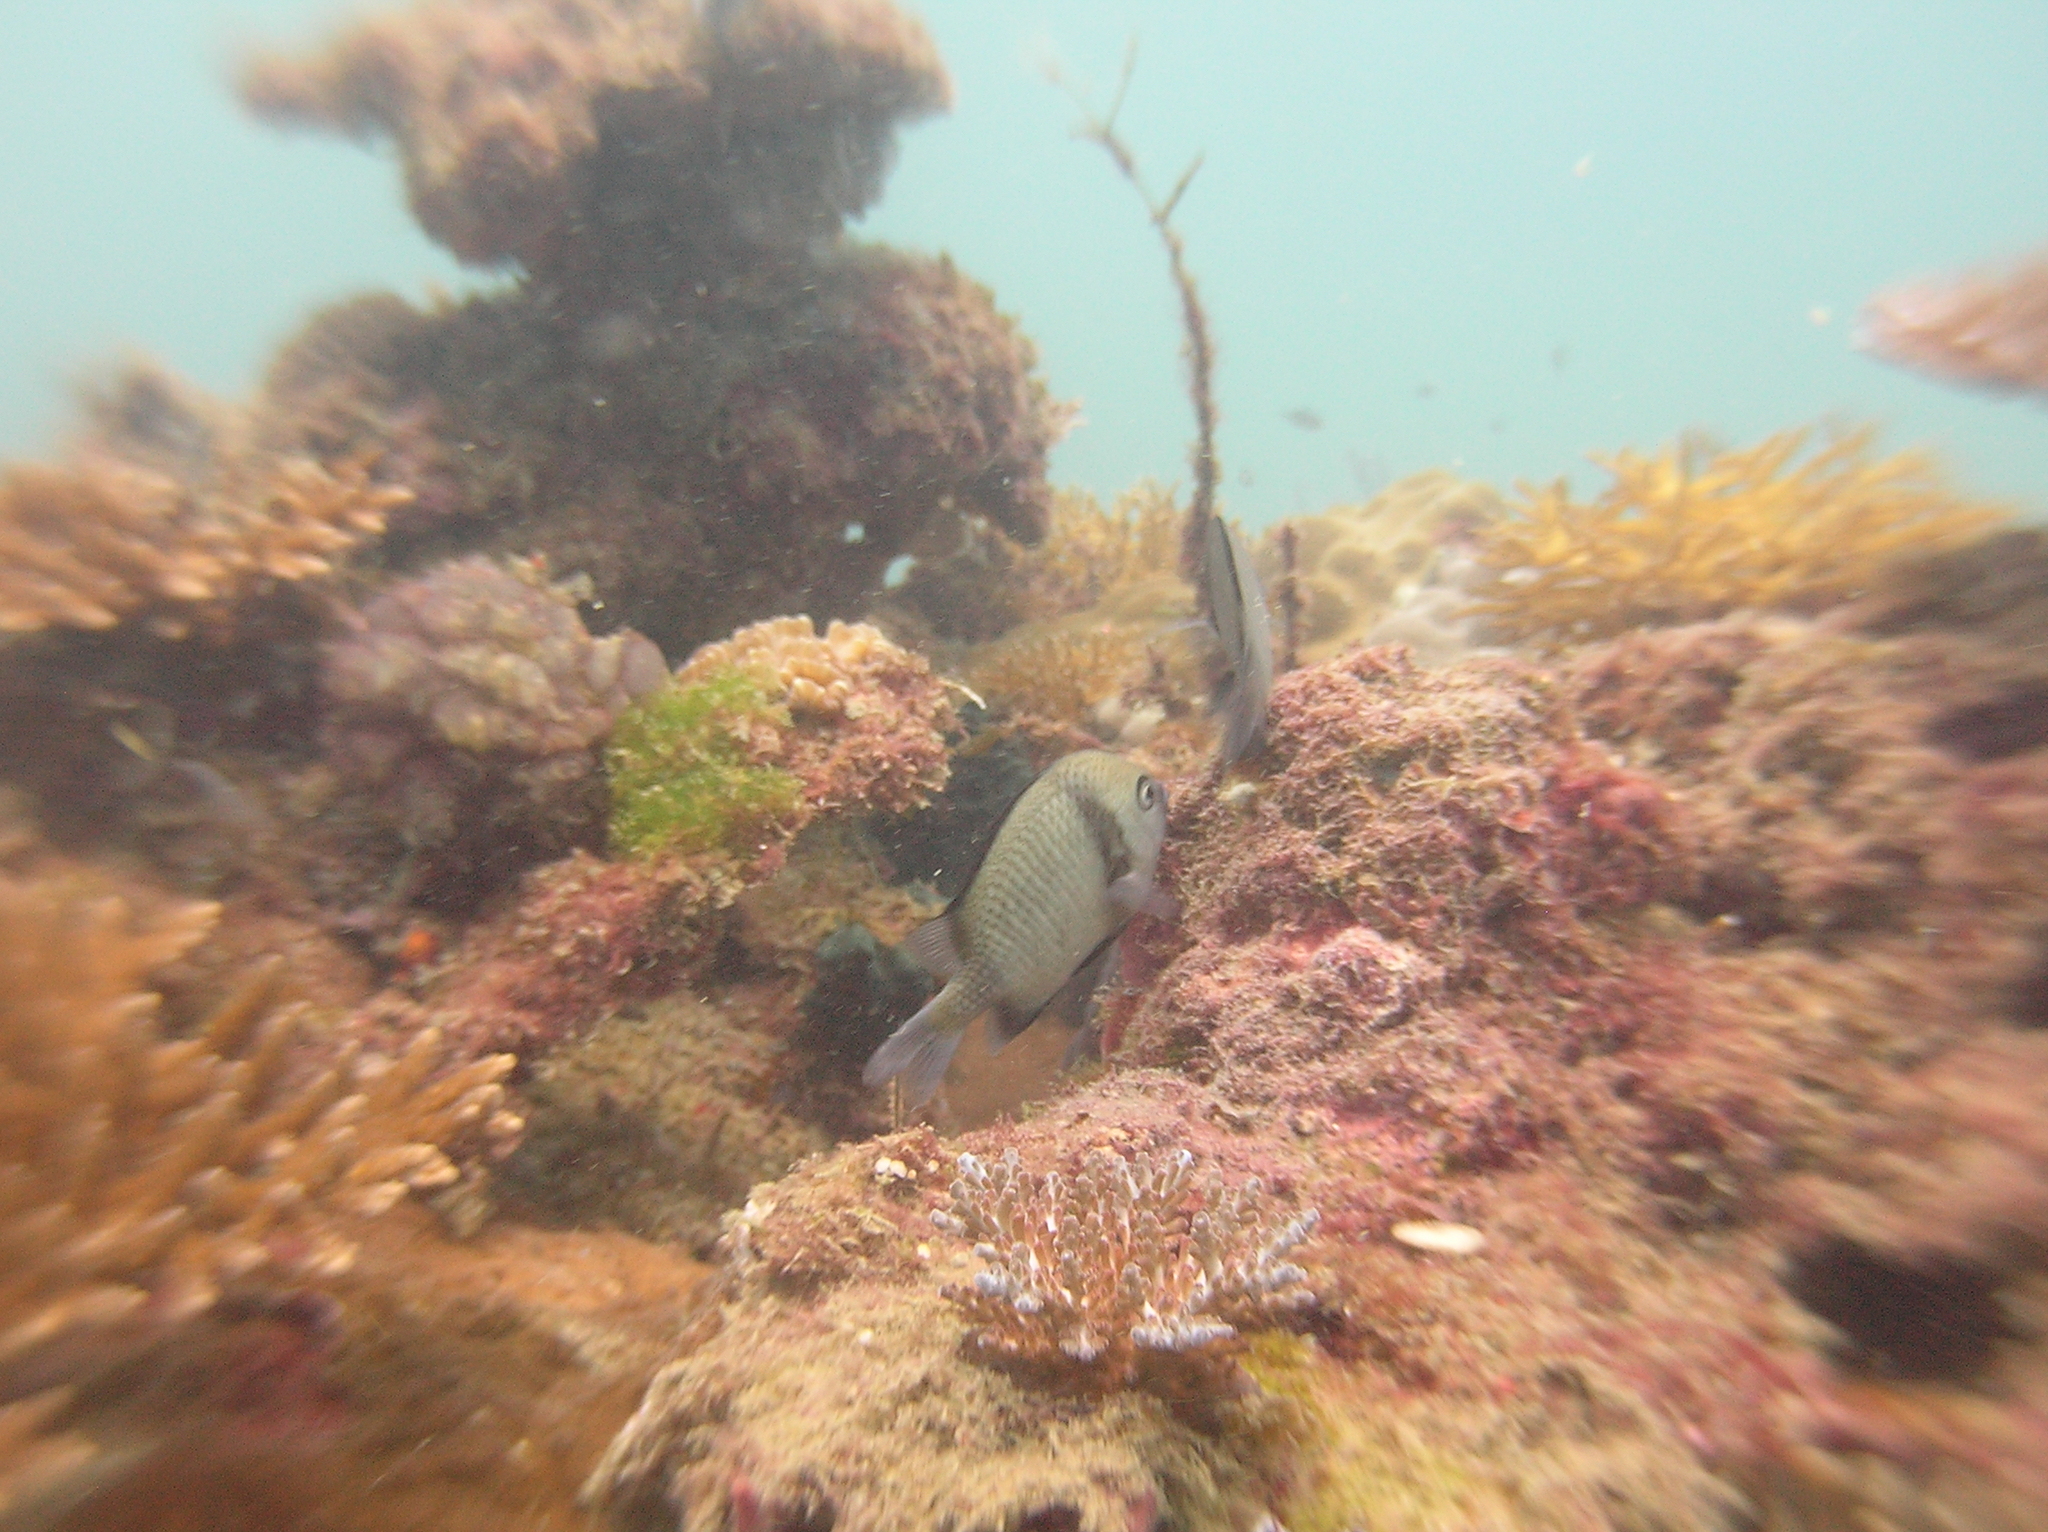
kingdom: Animalia
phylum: Chordata
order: Perciformes
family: Pomacentridae
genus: Dascyllus
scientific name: Dascyllus reticulatus
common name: Reticulated dascyllus
